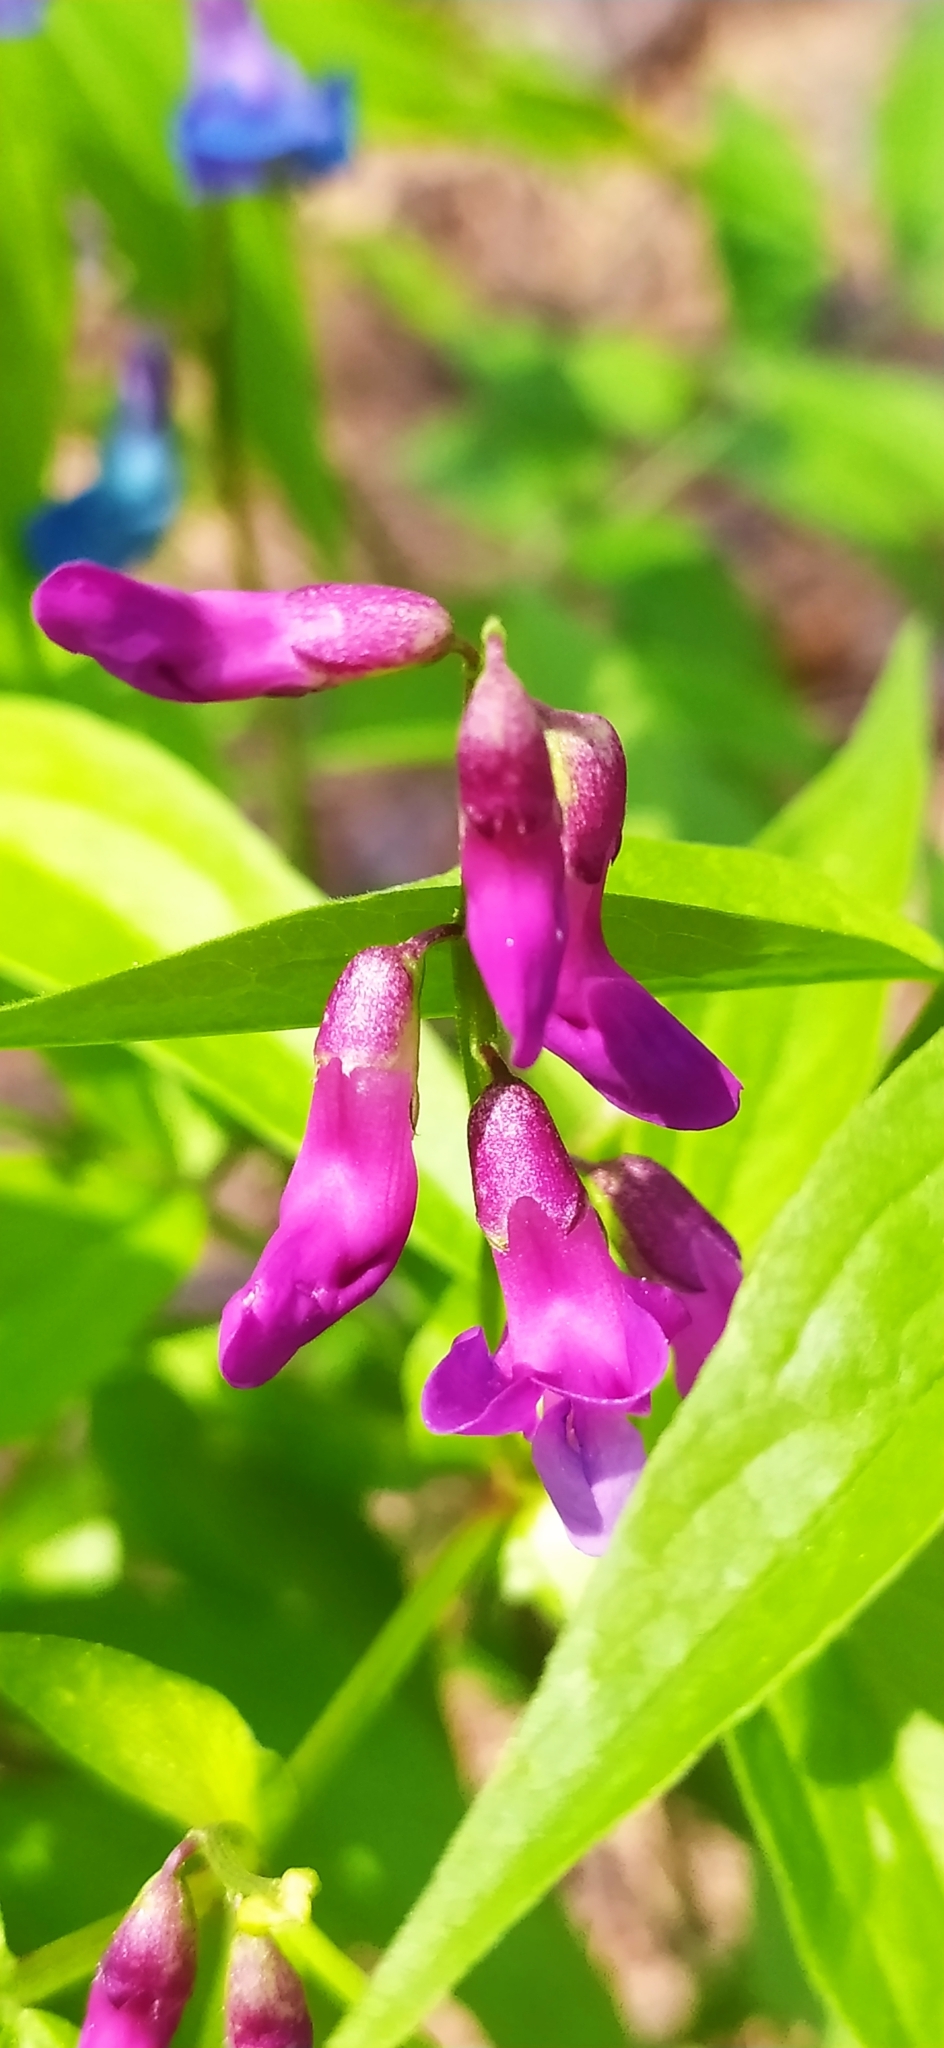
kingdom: Plantae
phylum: Tracheophyta
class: Magnoliopsida
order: Fabales
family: Fabaceae
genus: Lathyrus
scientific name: Lathyrus vernus
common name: Spring pea
